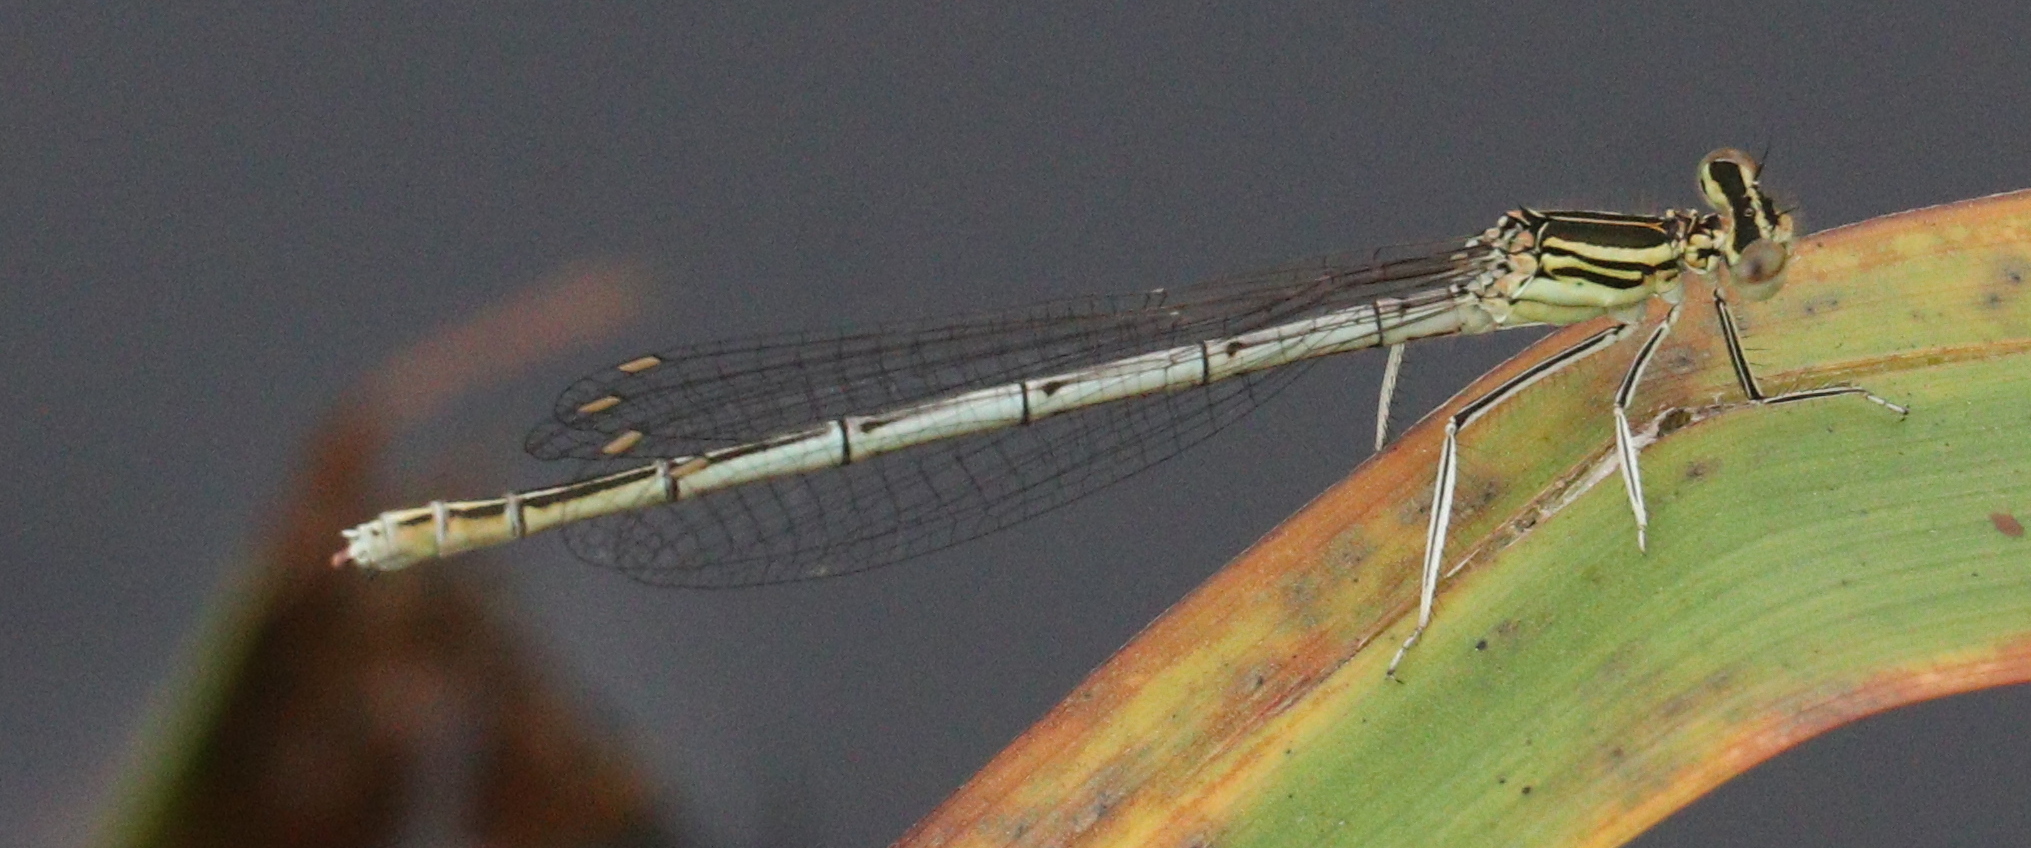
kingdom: Animalia
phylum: Arthropoda
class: Insecta
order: Odonata
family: Platycnemididae
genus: Platycnemis
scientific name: Platycnemis pennipes
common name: White-legged damselfly
